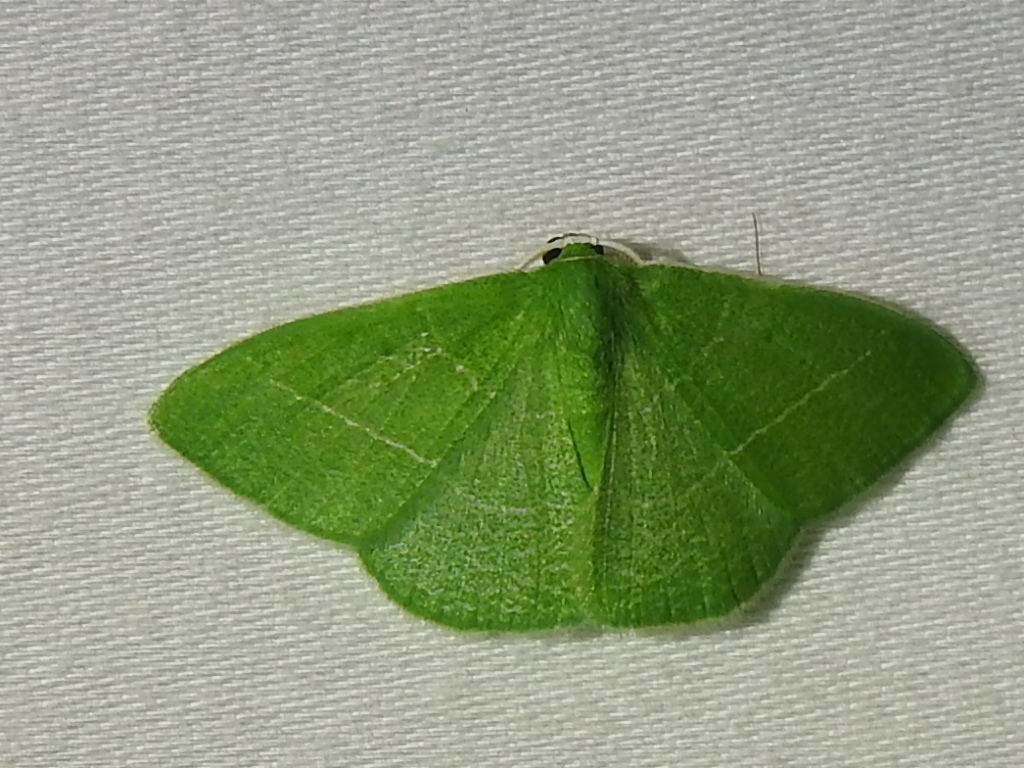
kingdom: Animalia
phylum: Arthropoda
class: Insecta
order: Lepidoptera
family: Geometridae
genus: Nemoria
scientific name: Nemoria zygotaria
